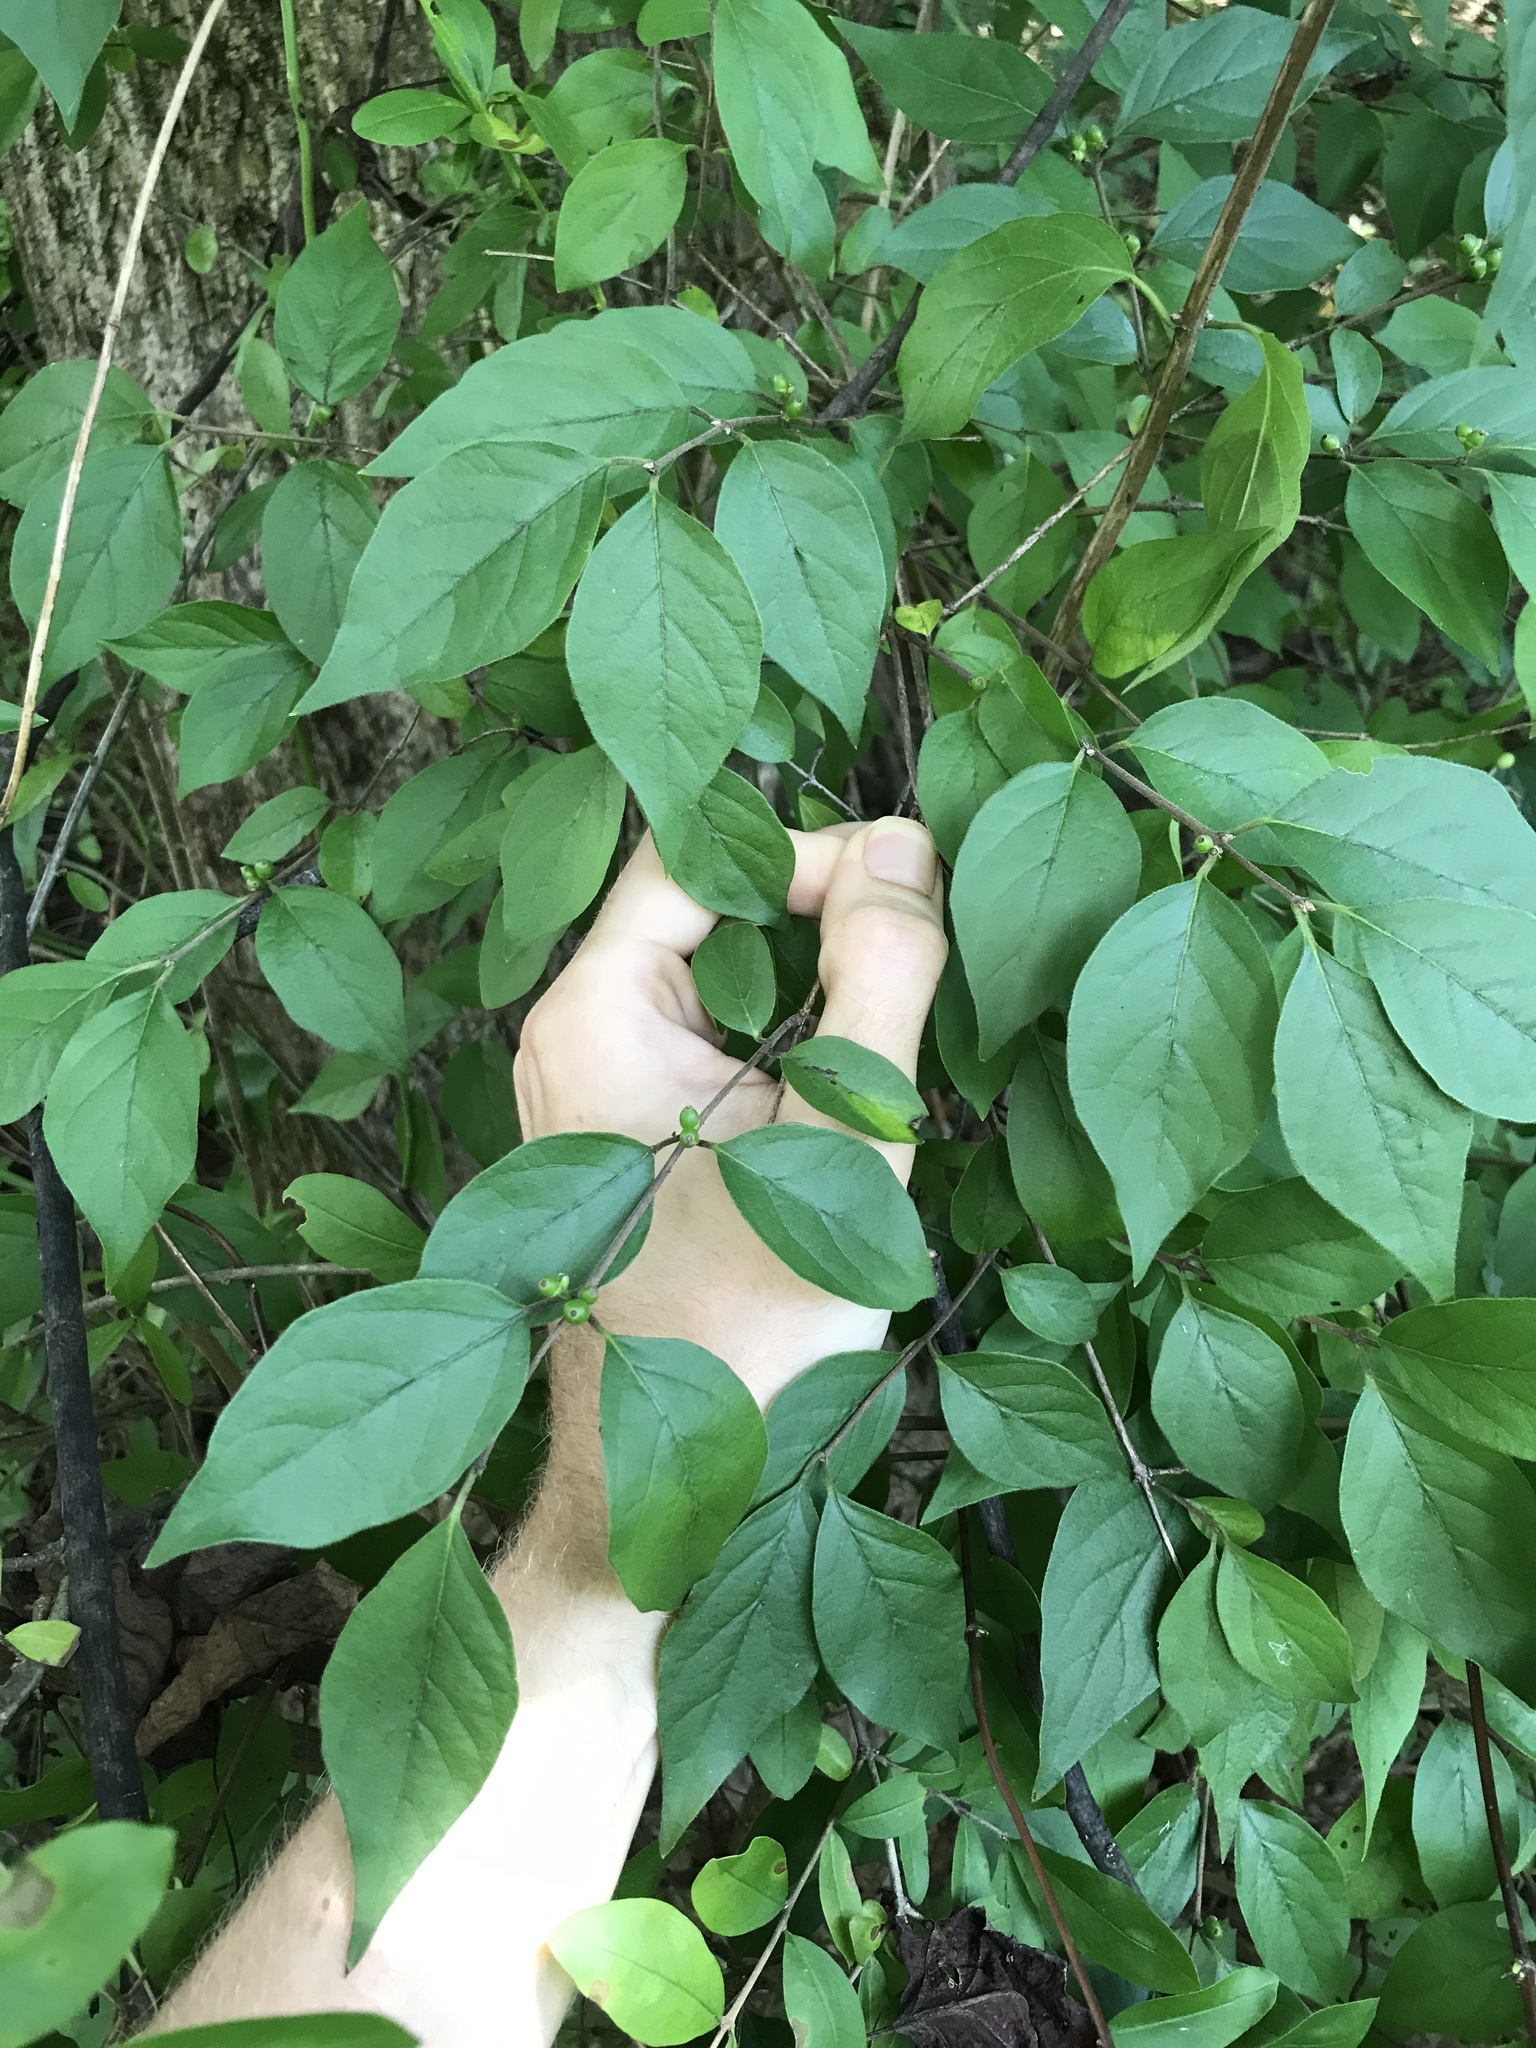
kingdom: Plantae
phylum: Tracheophyta
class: Magnoliopsida
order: Dipsacales
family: Caprifoliaceae
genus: Lonicera
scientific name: Lonicera maackii
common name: Amur honeysuckle
